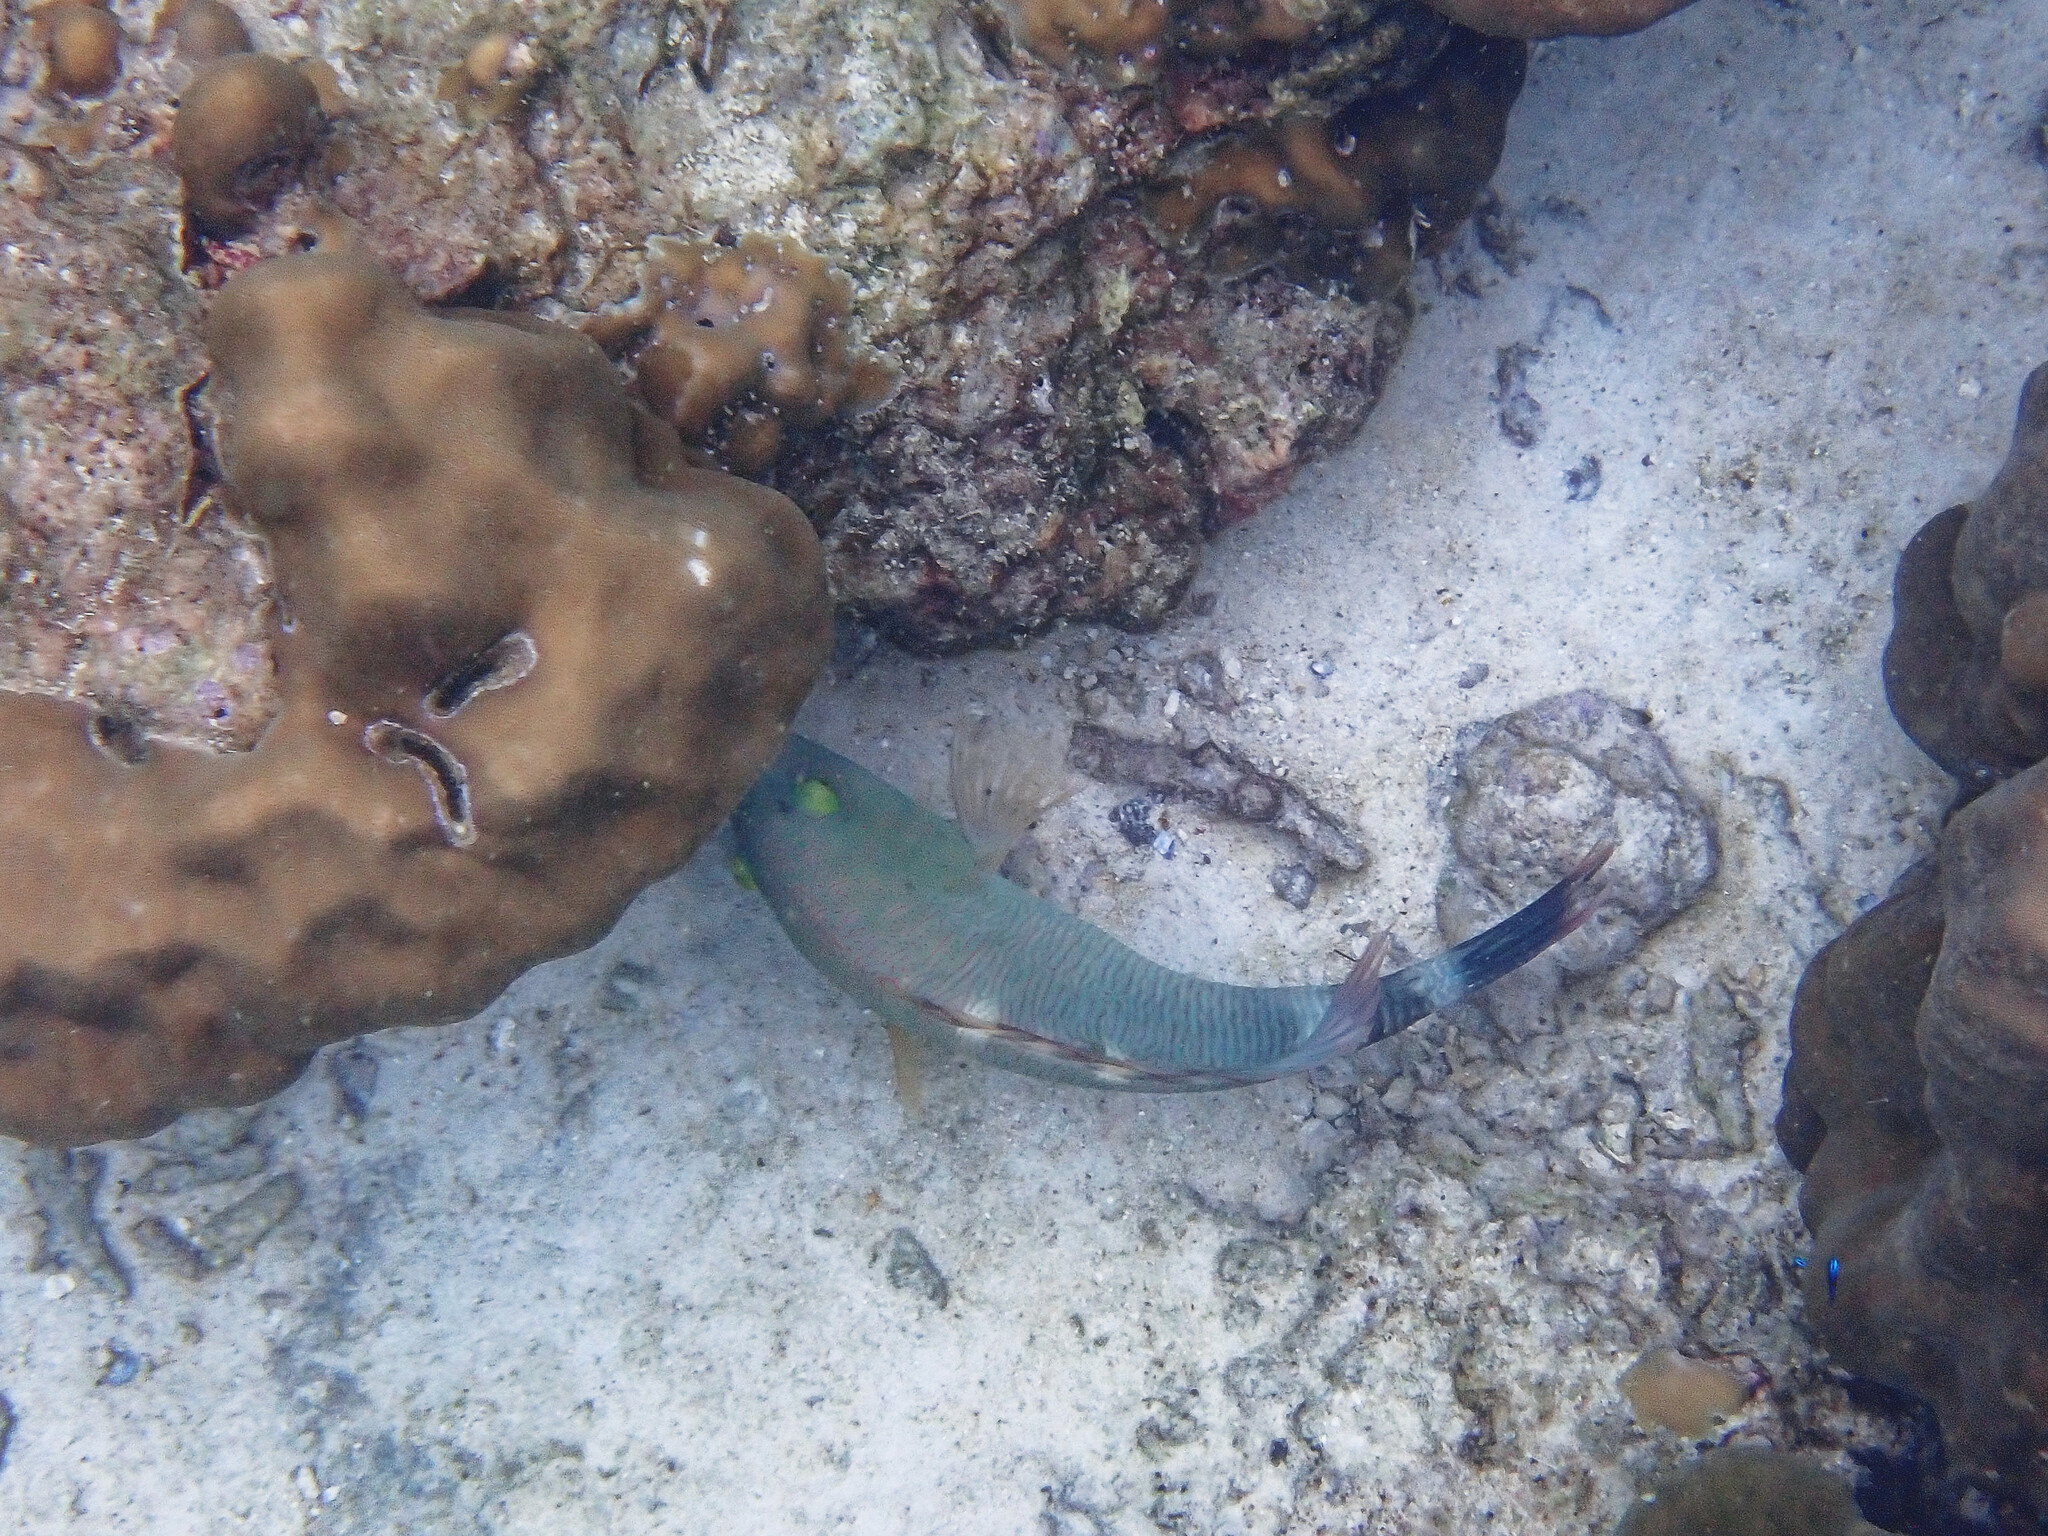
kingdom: Animalia
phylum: Chordata
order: Perciformes
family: Labridae
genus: Cheilinus
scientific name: Cheilinus trilobatus
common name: Tripletail maori wrasse
